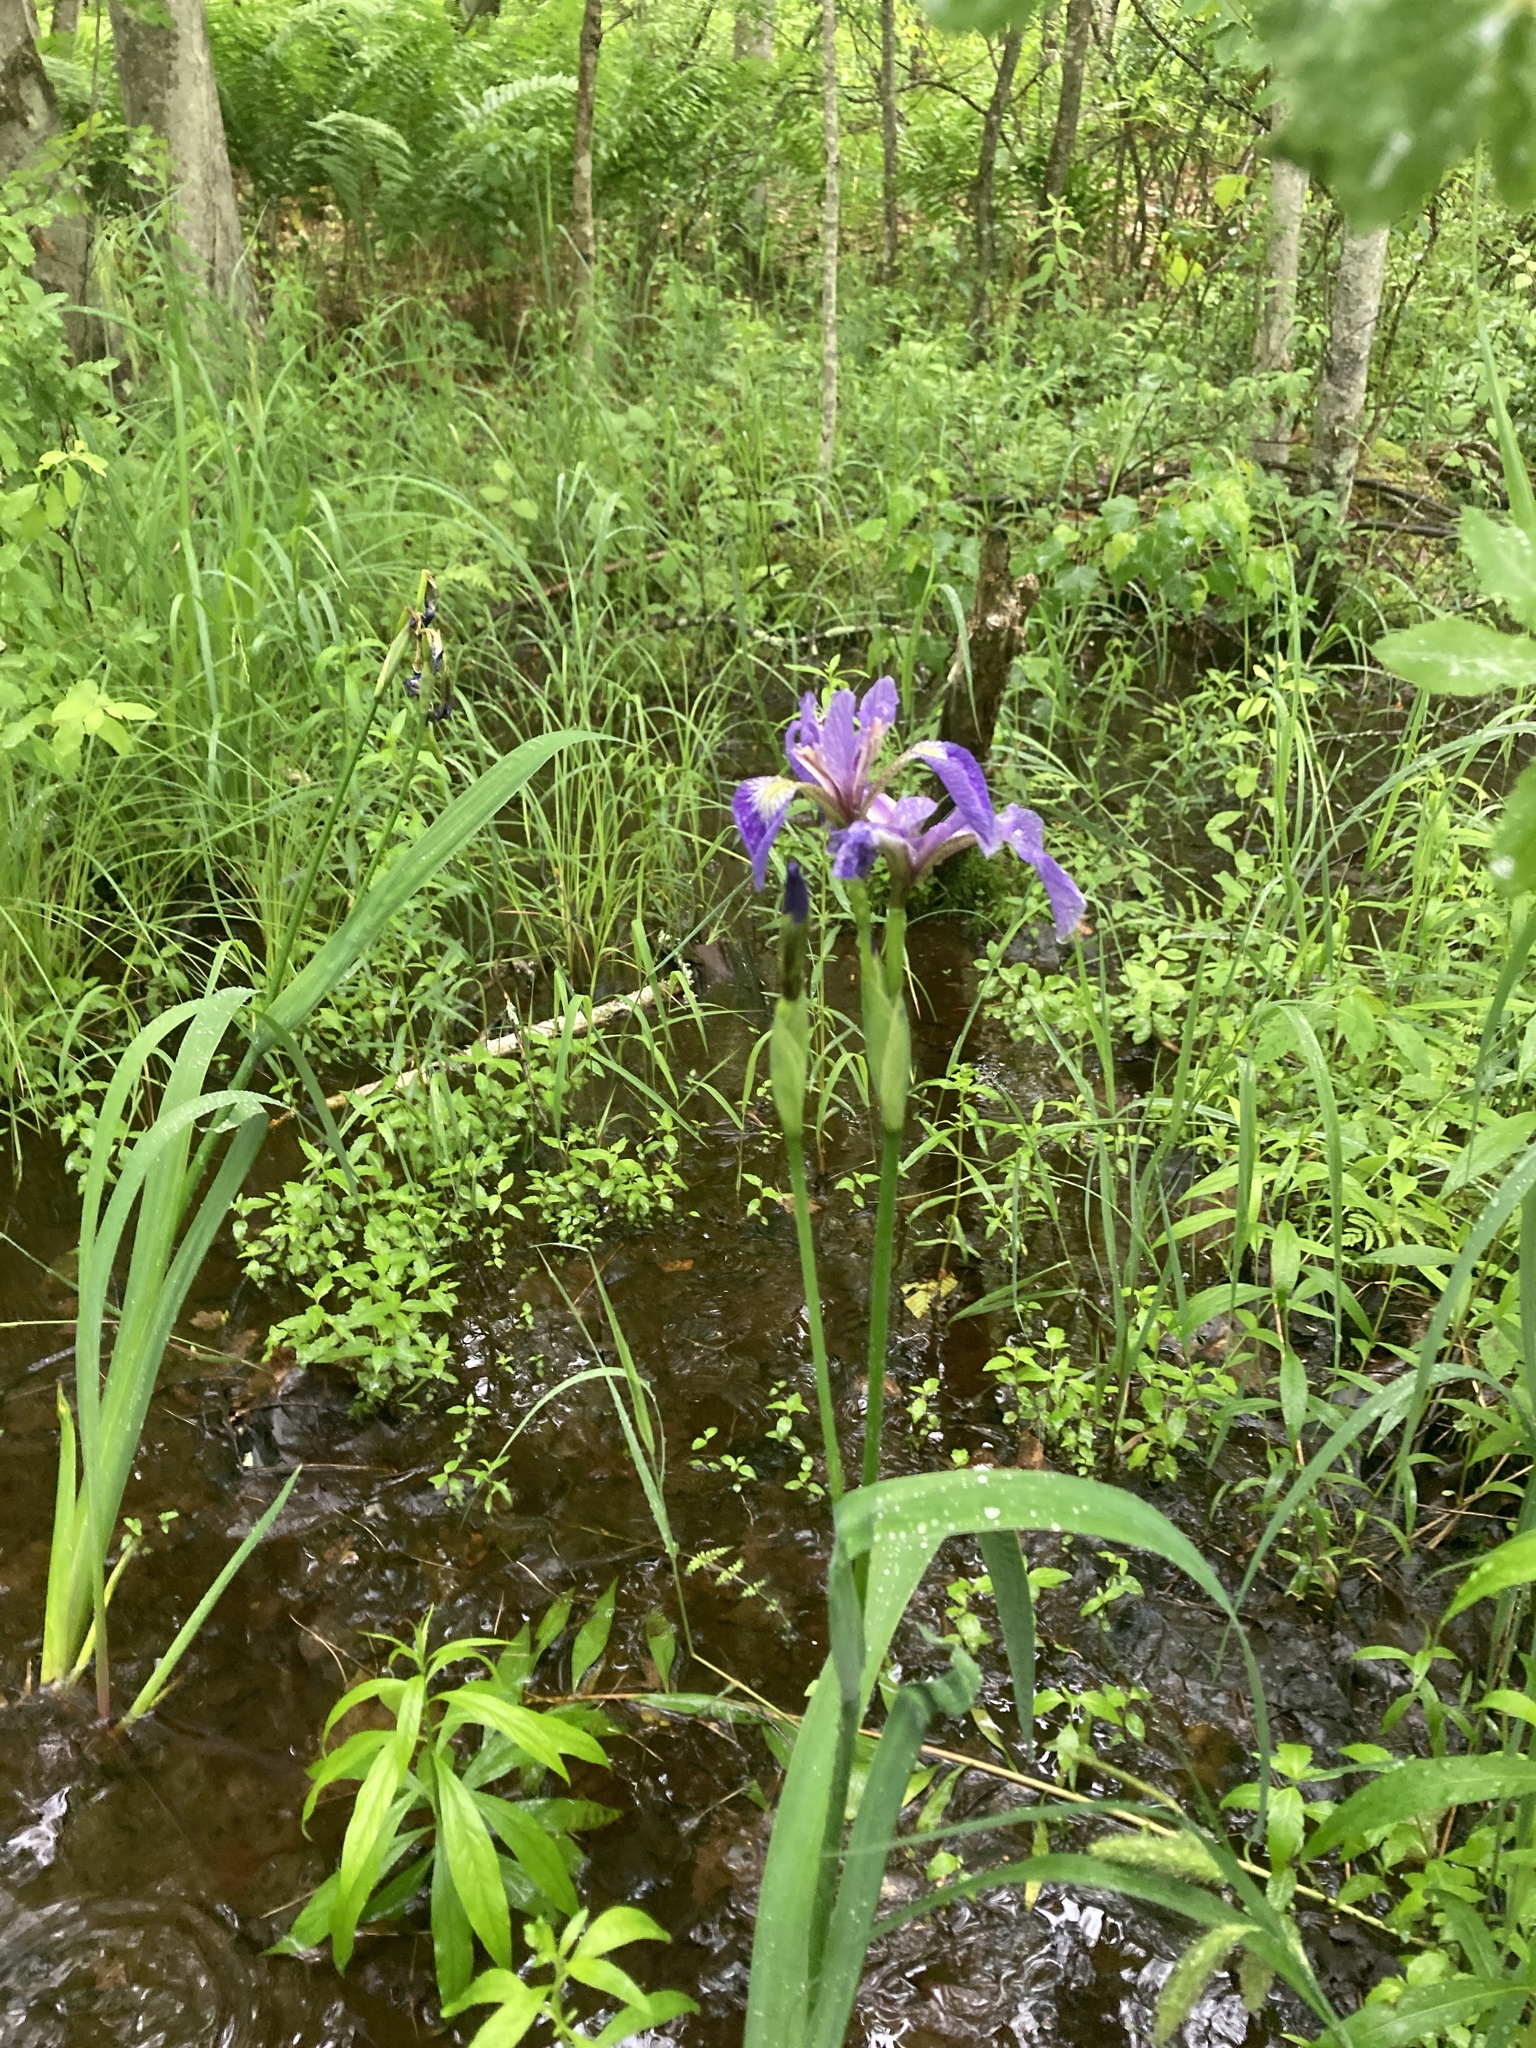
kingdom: Plantae
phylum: Tracheophyta
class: Liliopsida
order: Asparagales
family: Iridaceae
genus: Iris
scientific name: Iris versicolor
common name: Purple iris
